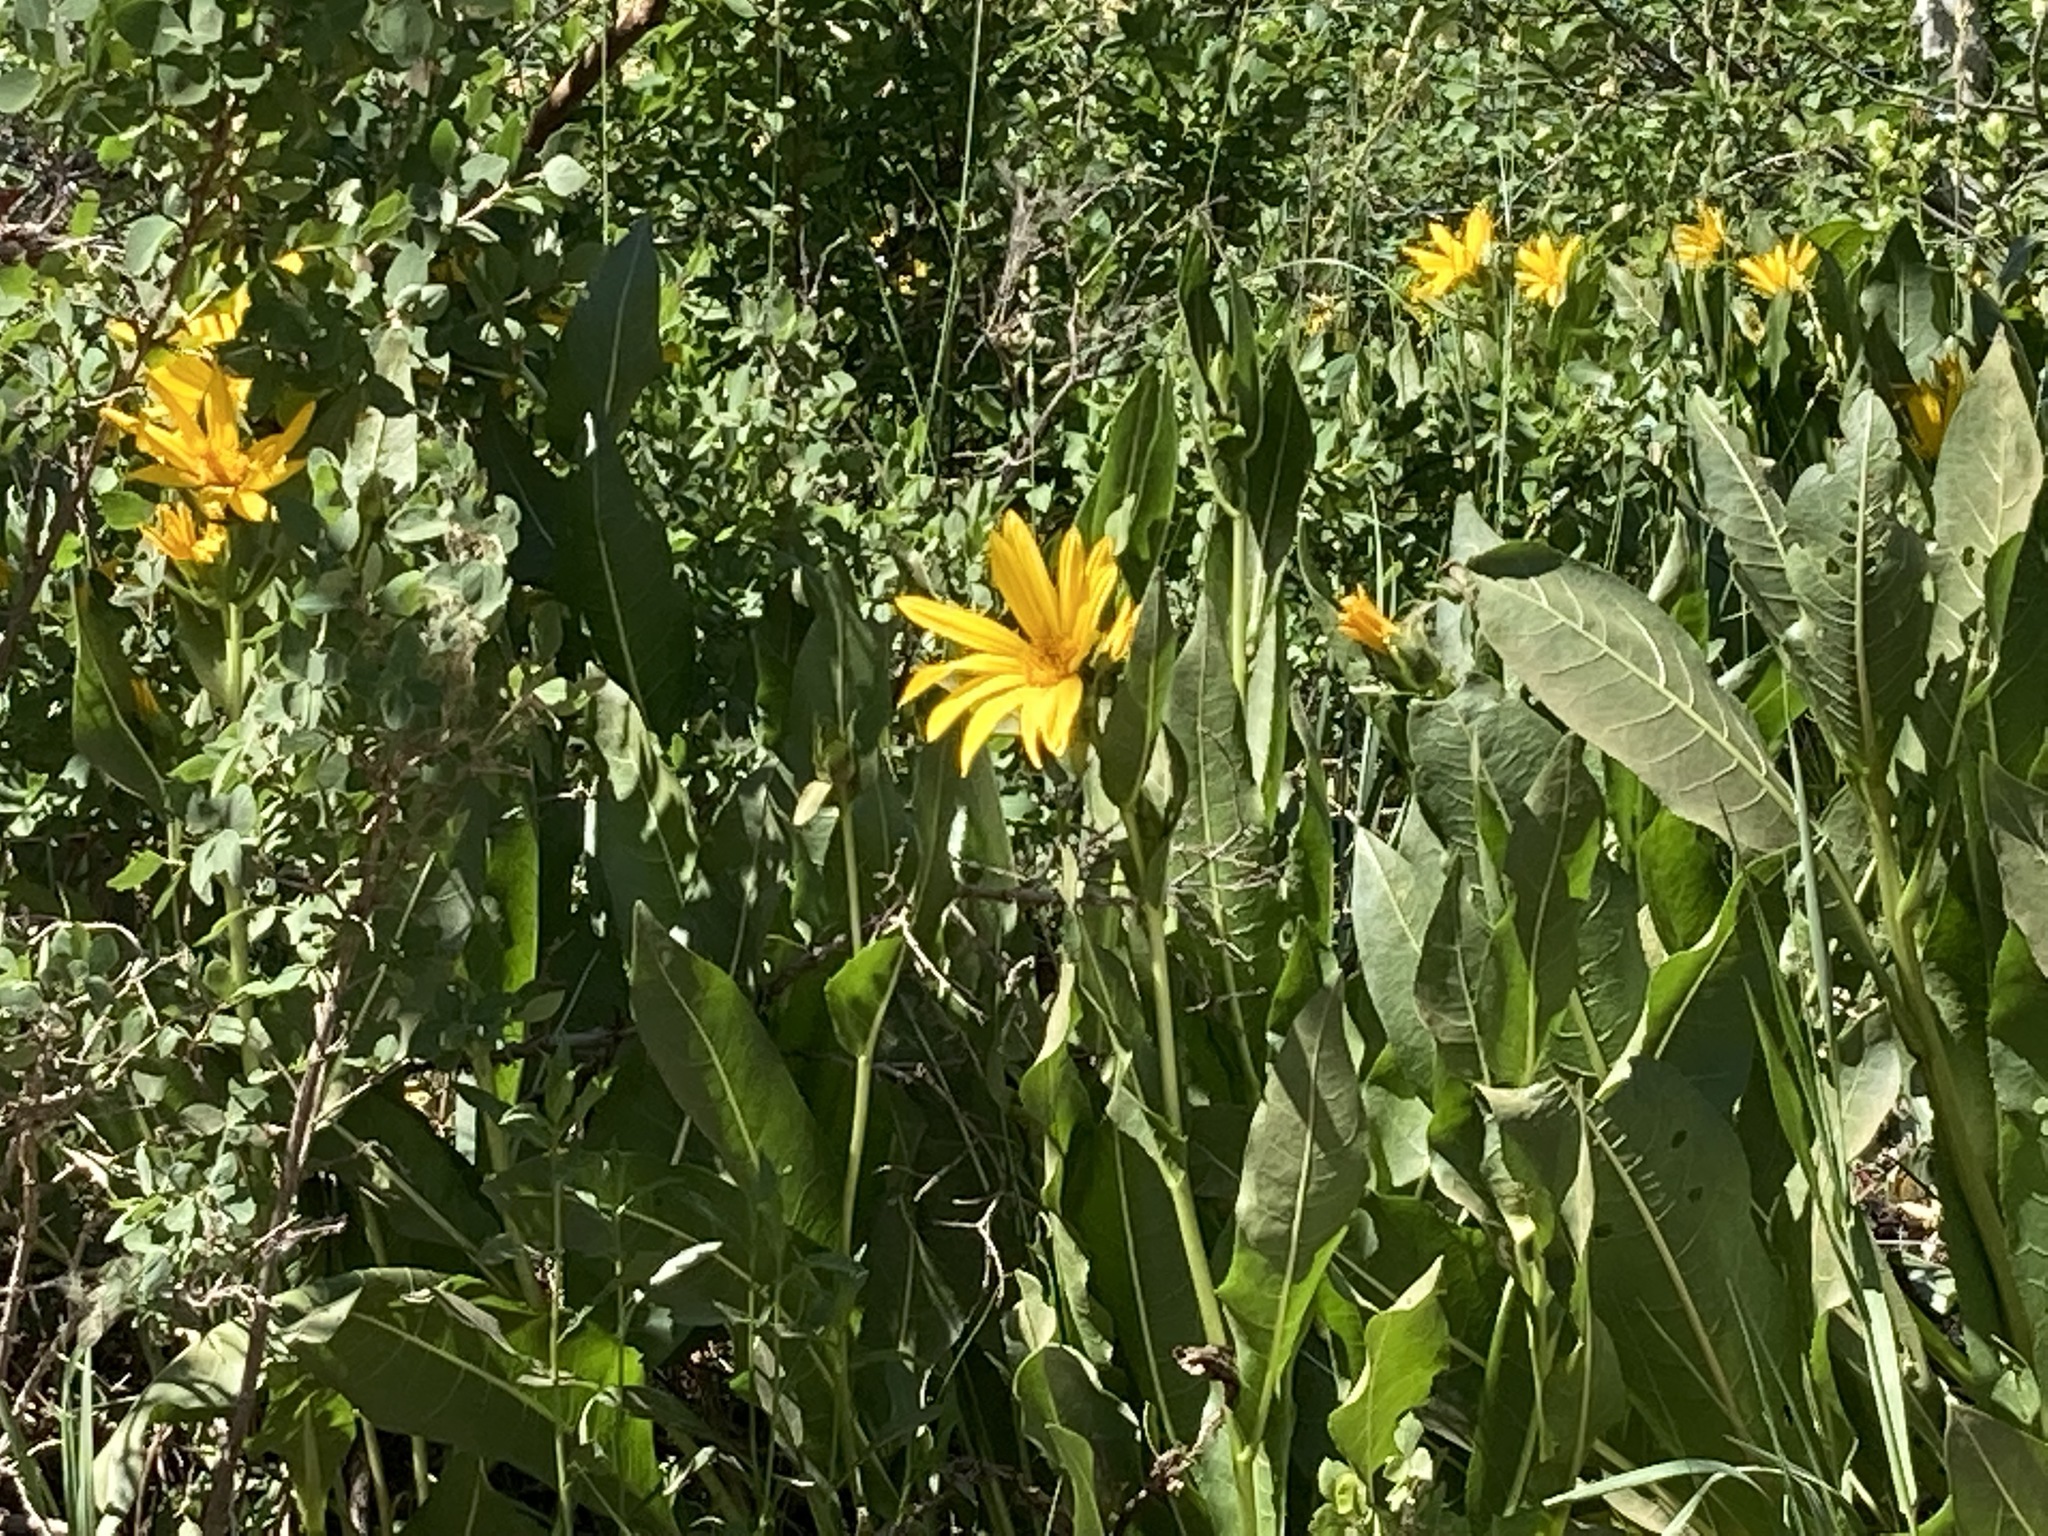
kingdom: Plantae
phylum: Tracheophyta
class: Magnoliopsida
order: Asterales
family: Asteraceae
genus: Wyethia
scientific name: Wyethia amplexicaulis
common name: Northern mule's-ears
